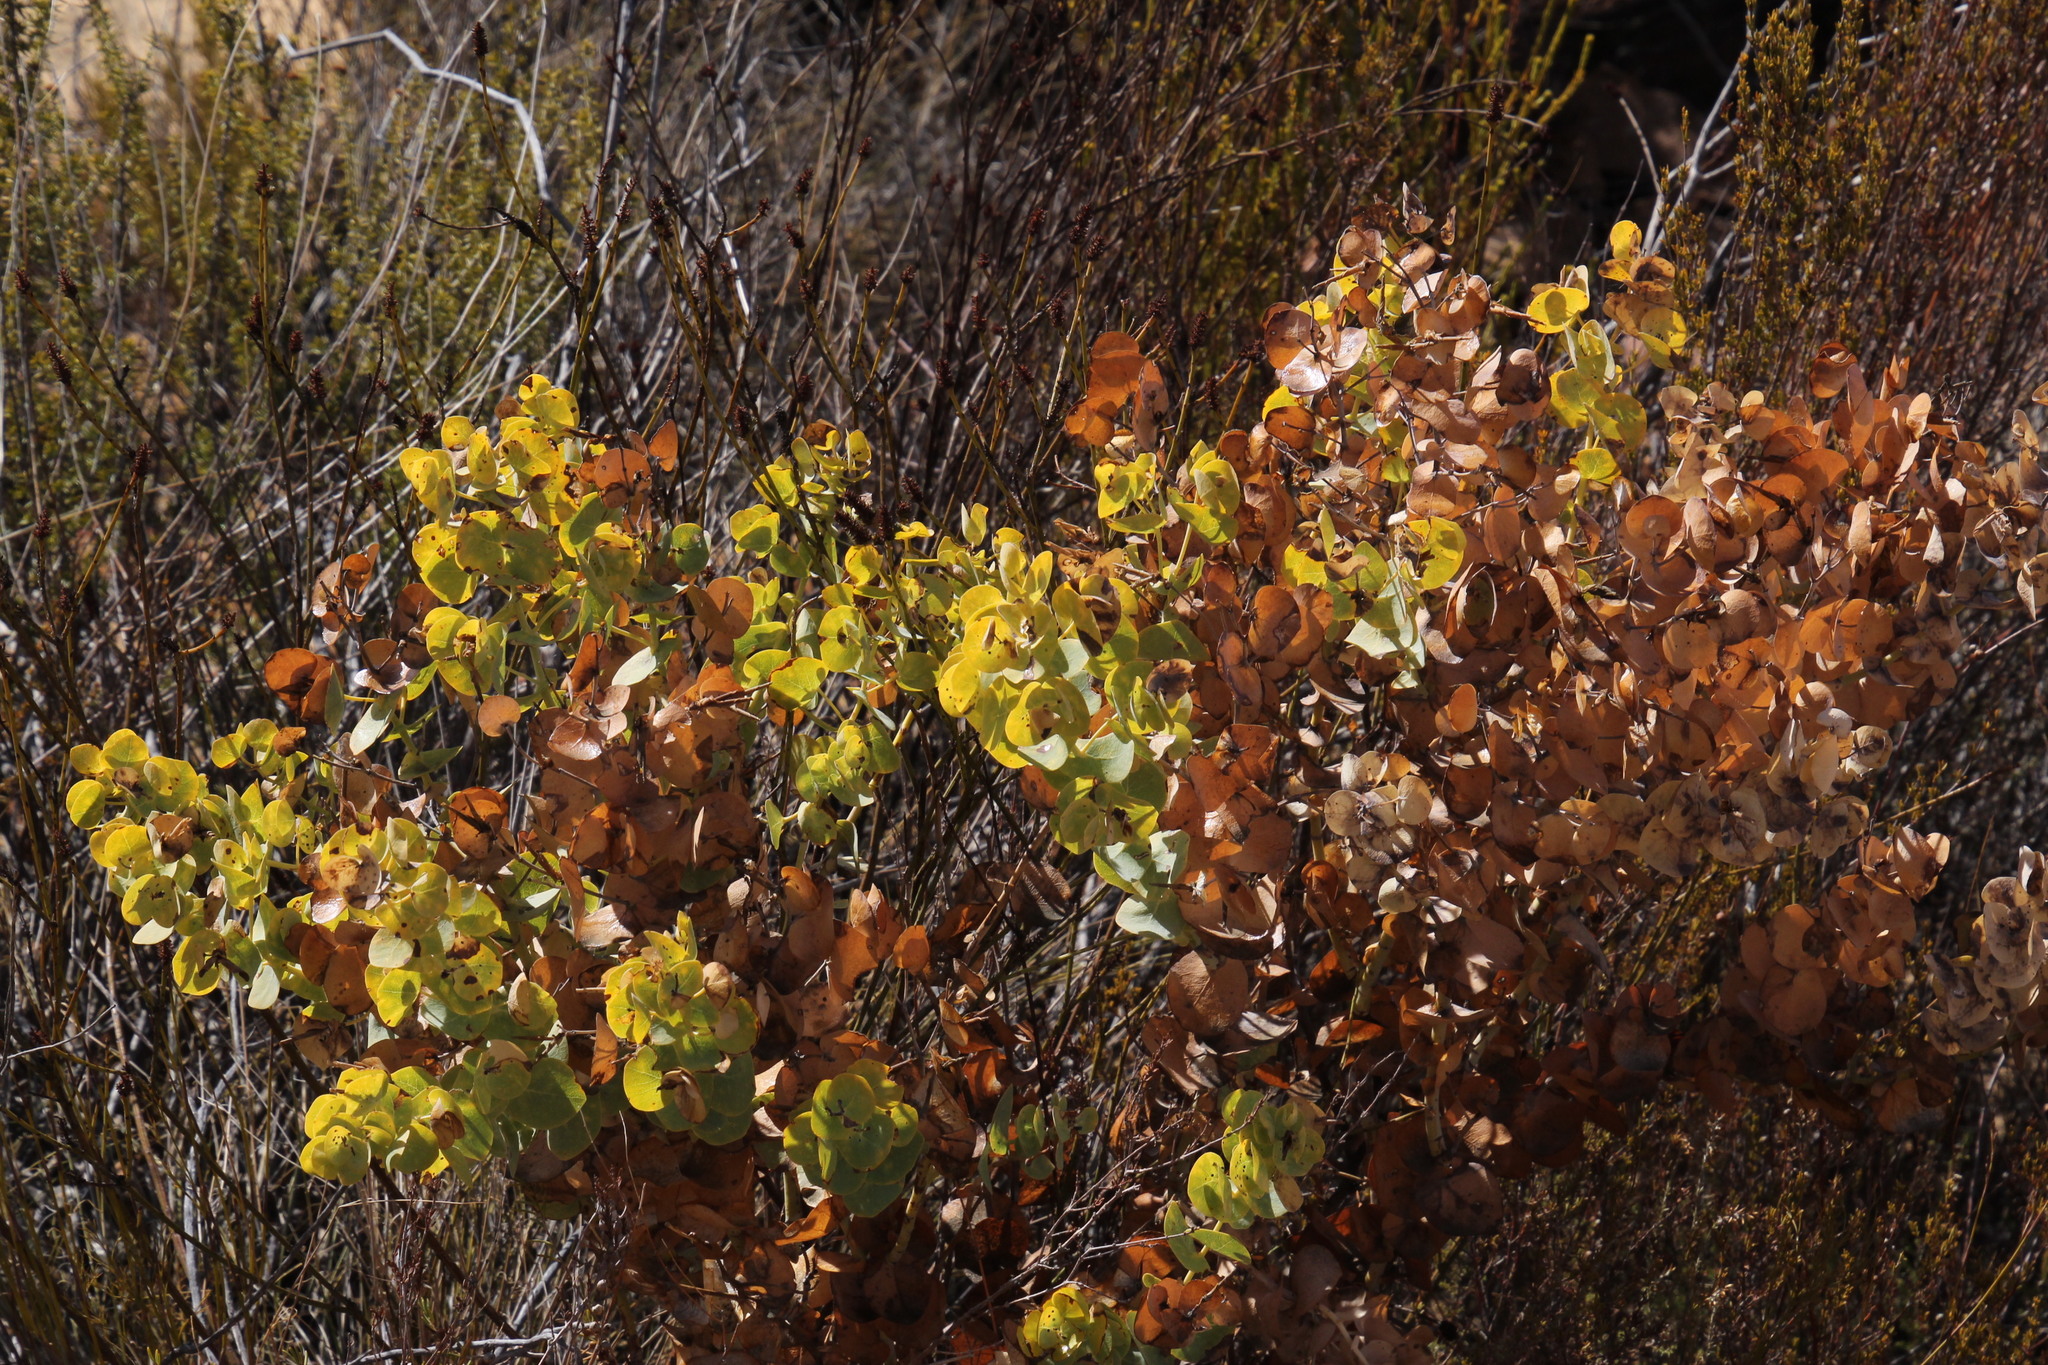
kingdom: Plantae
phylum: Tracheophyta
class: Magnoliopsida
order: Fabales
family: Fabaceae
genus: Rafnia
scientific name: Rafnia amplexicaulis
